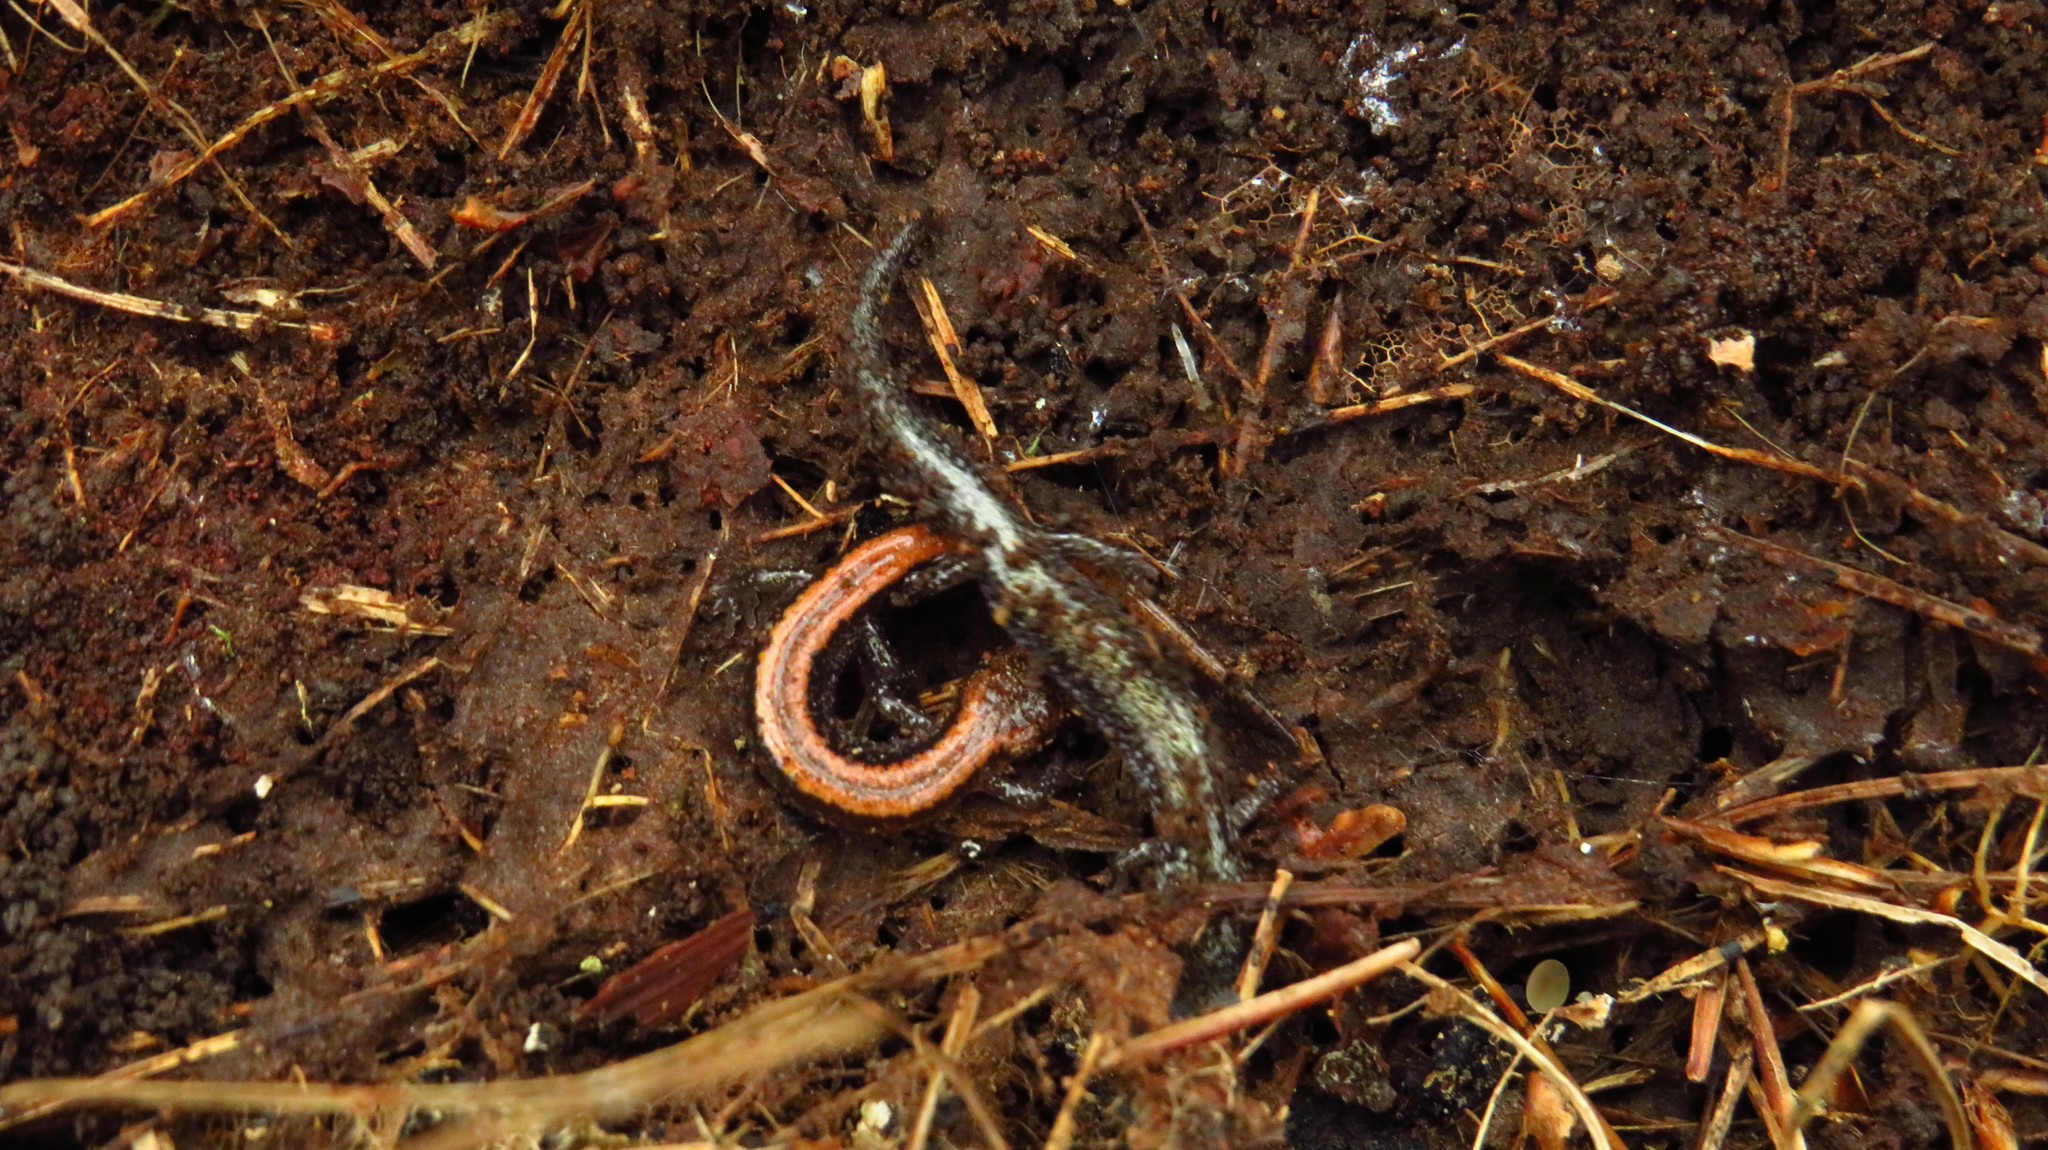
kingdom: Animalia
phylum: Chordata
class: Amphibia
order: Caudata
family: Plethodontidae
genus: Plethodon
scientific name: Plethodon cinereus
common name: Redback salamander
